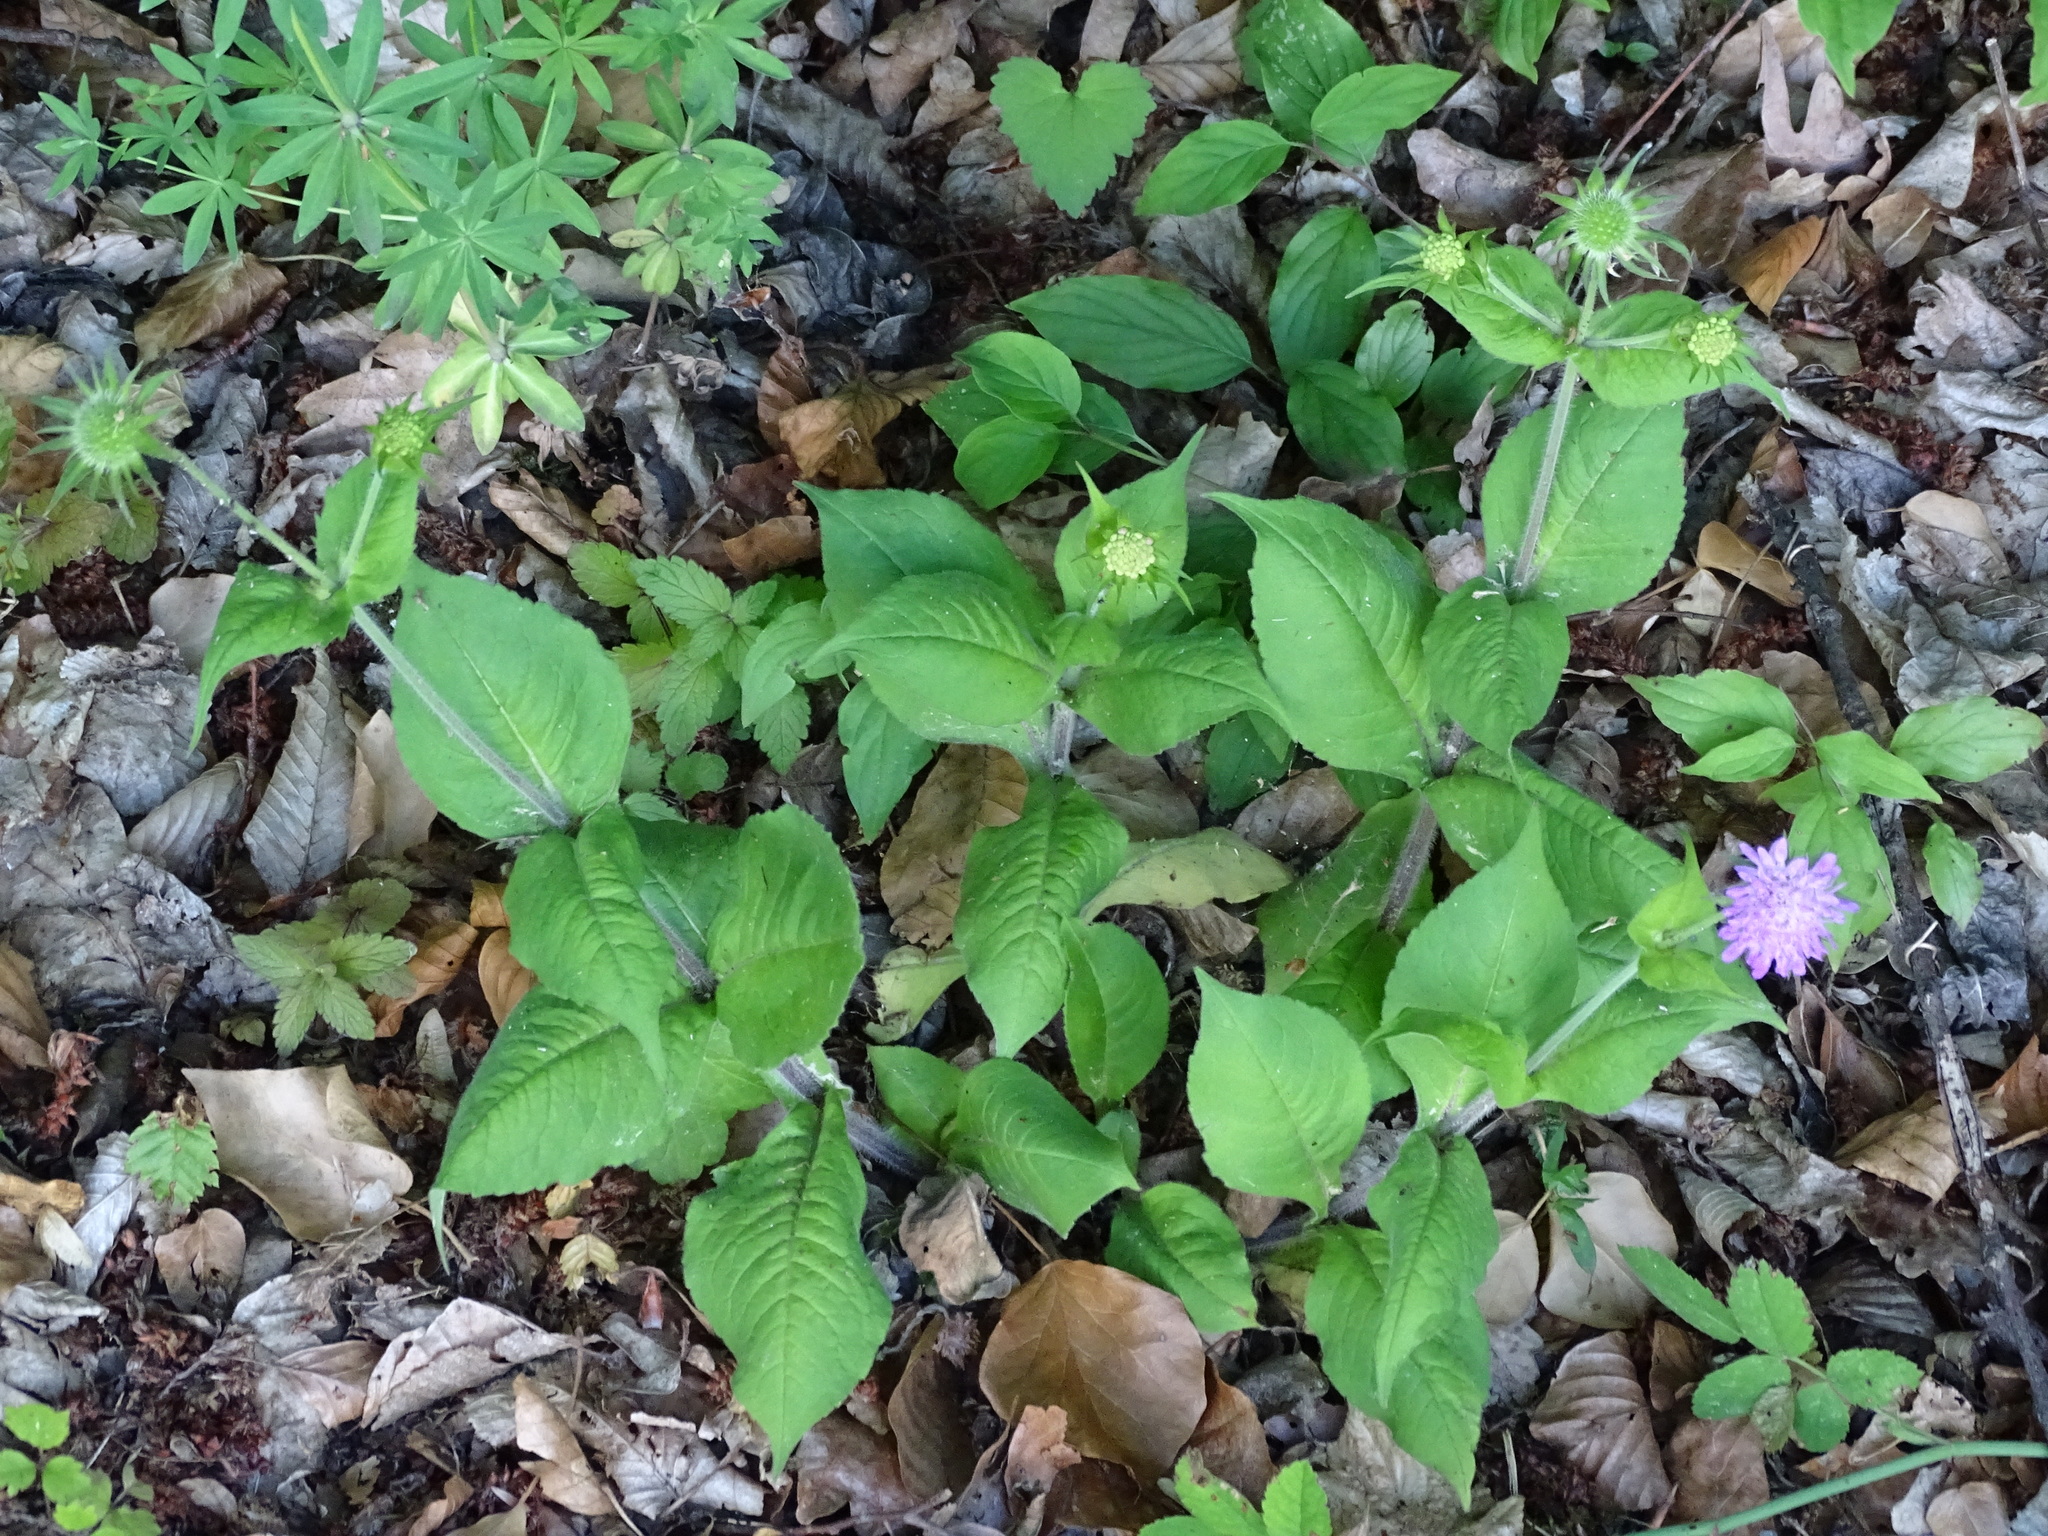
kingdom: Plantae
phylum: Tracheophyta
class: Magnoliopsida
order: Dipsacales
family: Caprifoliaceae
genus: Knautia
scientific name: Knautia drymeia
